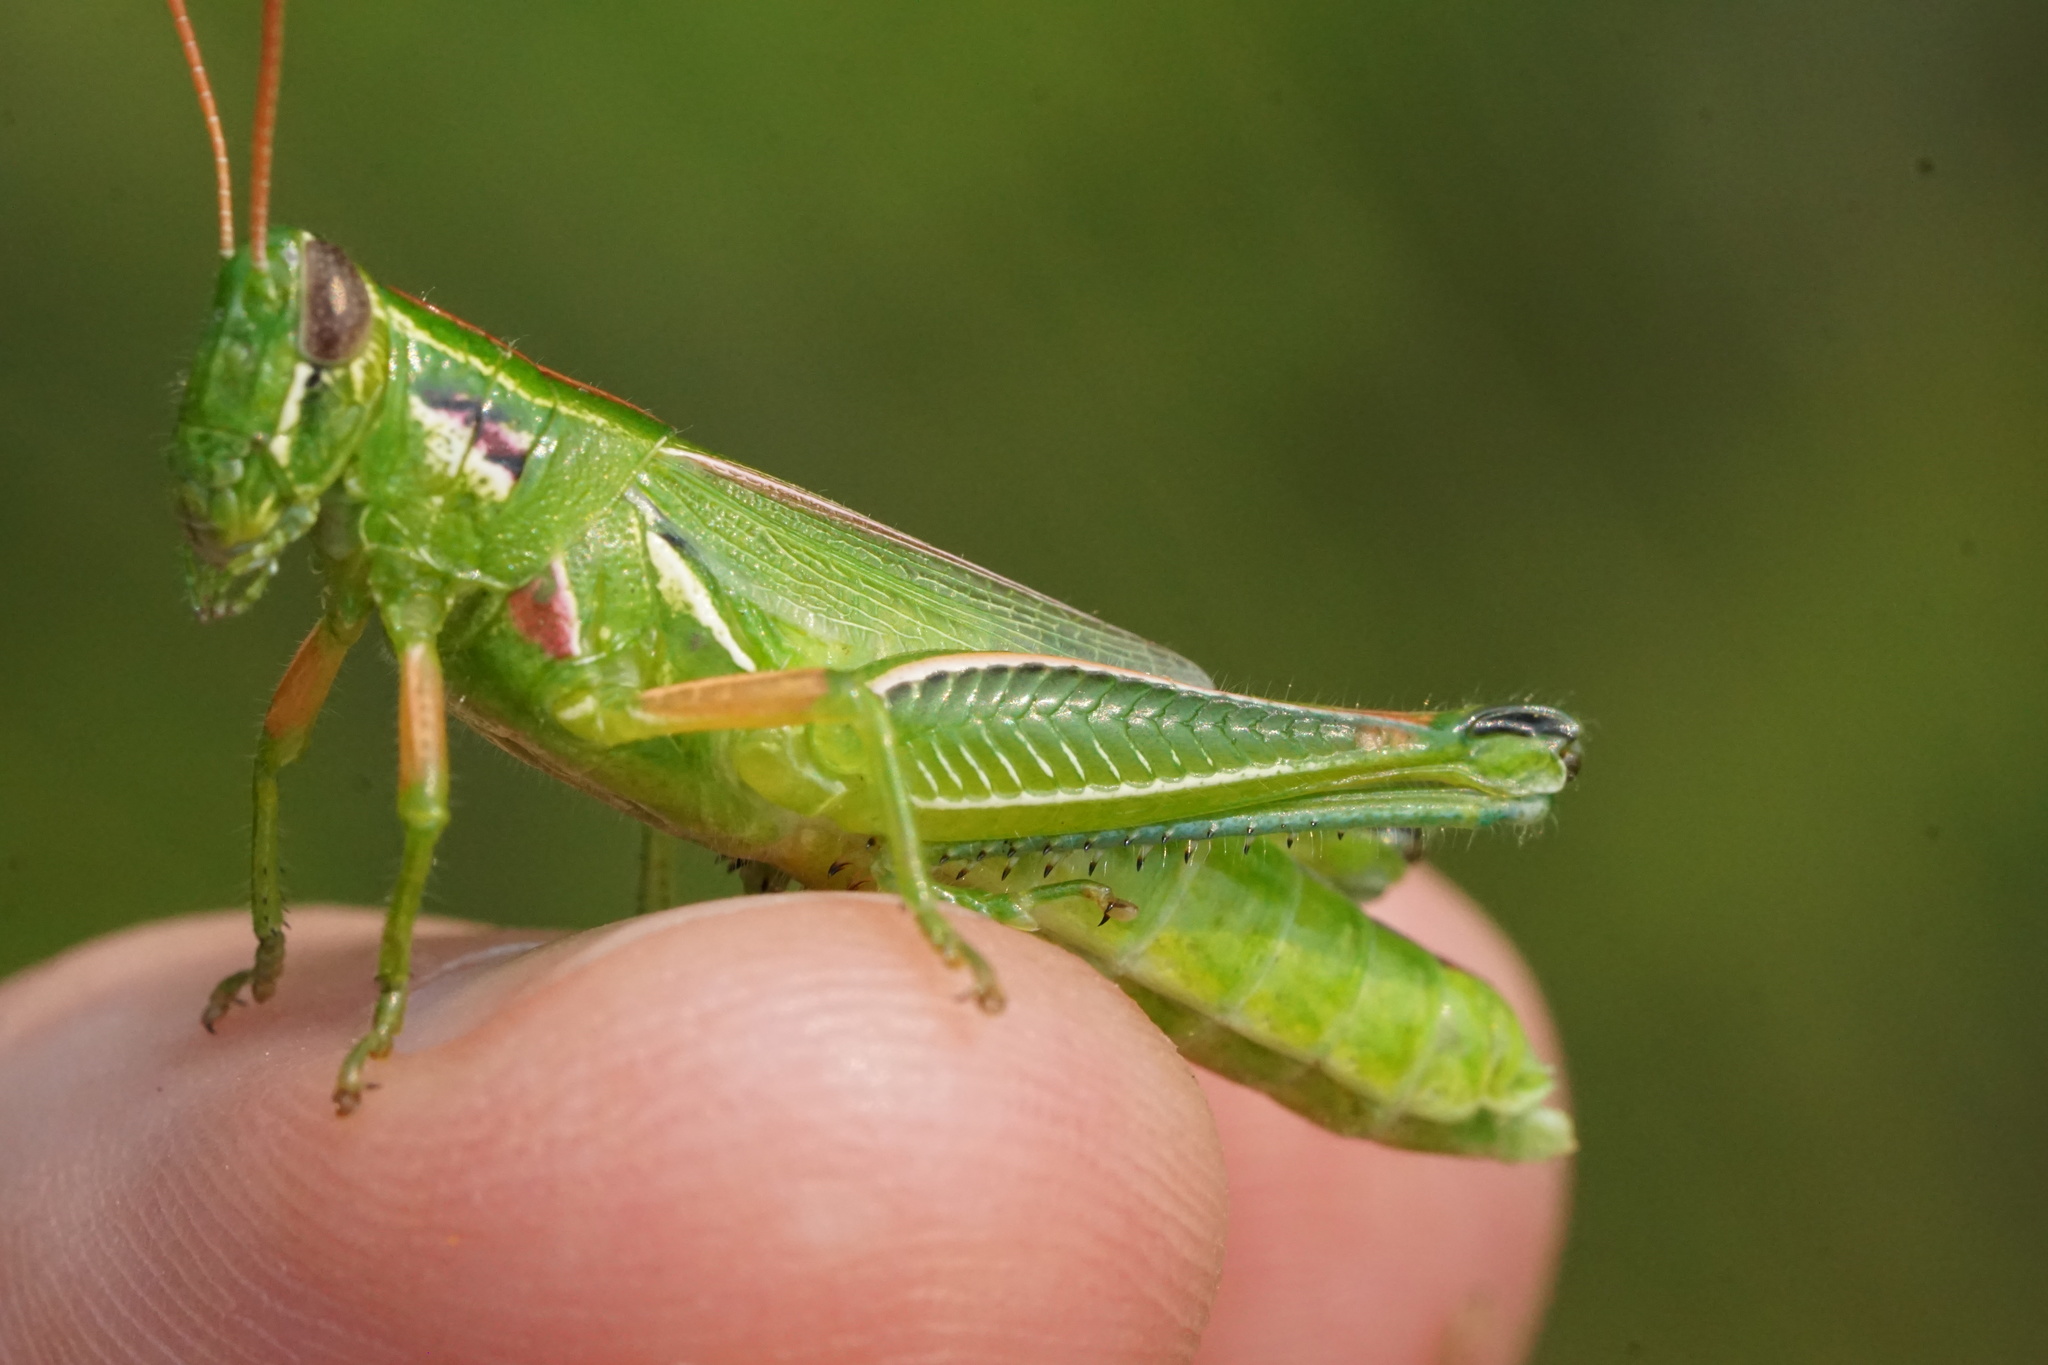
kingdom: Animalia
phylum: Arthropoda
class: Insecta
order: Orthoptera
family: Acrididae
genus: Hesperotettix
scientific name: Hesperotettix viridis
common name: Meadow purple-striped grasshopper
